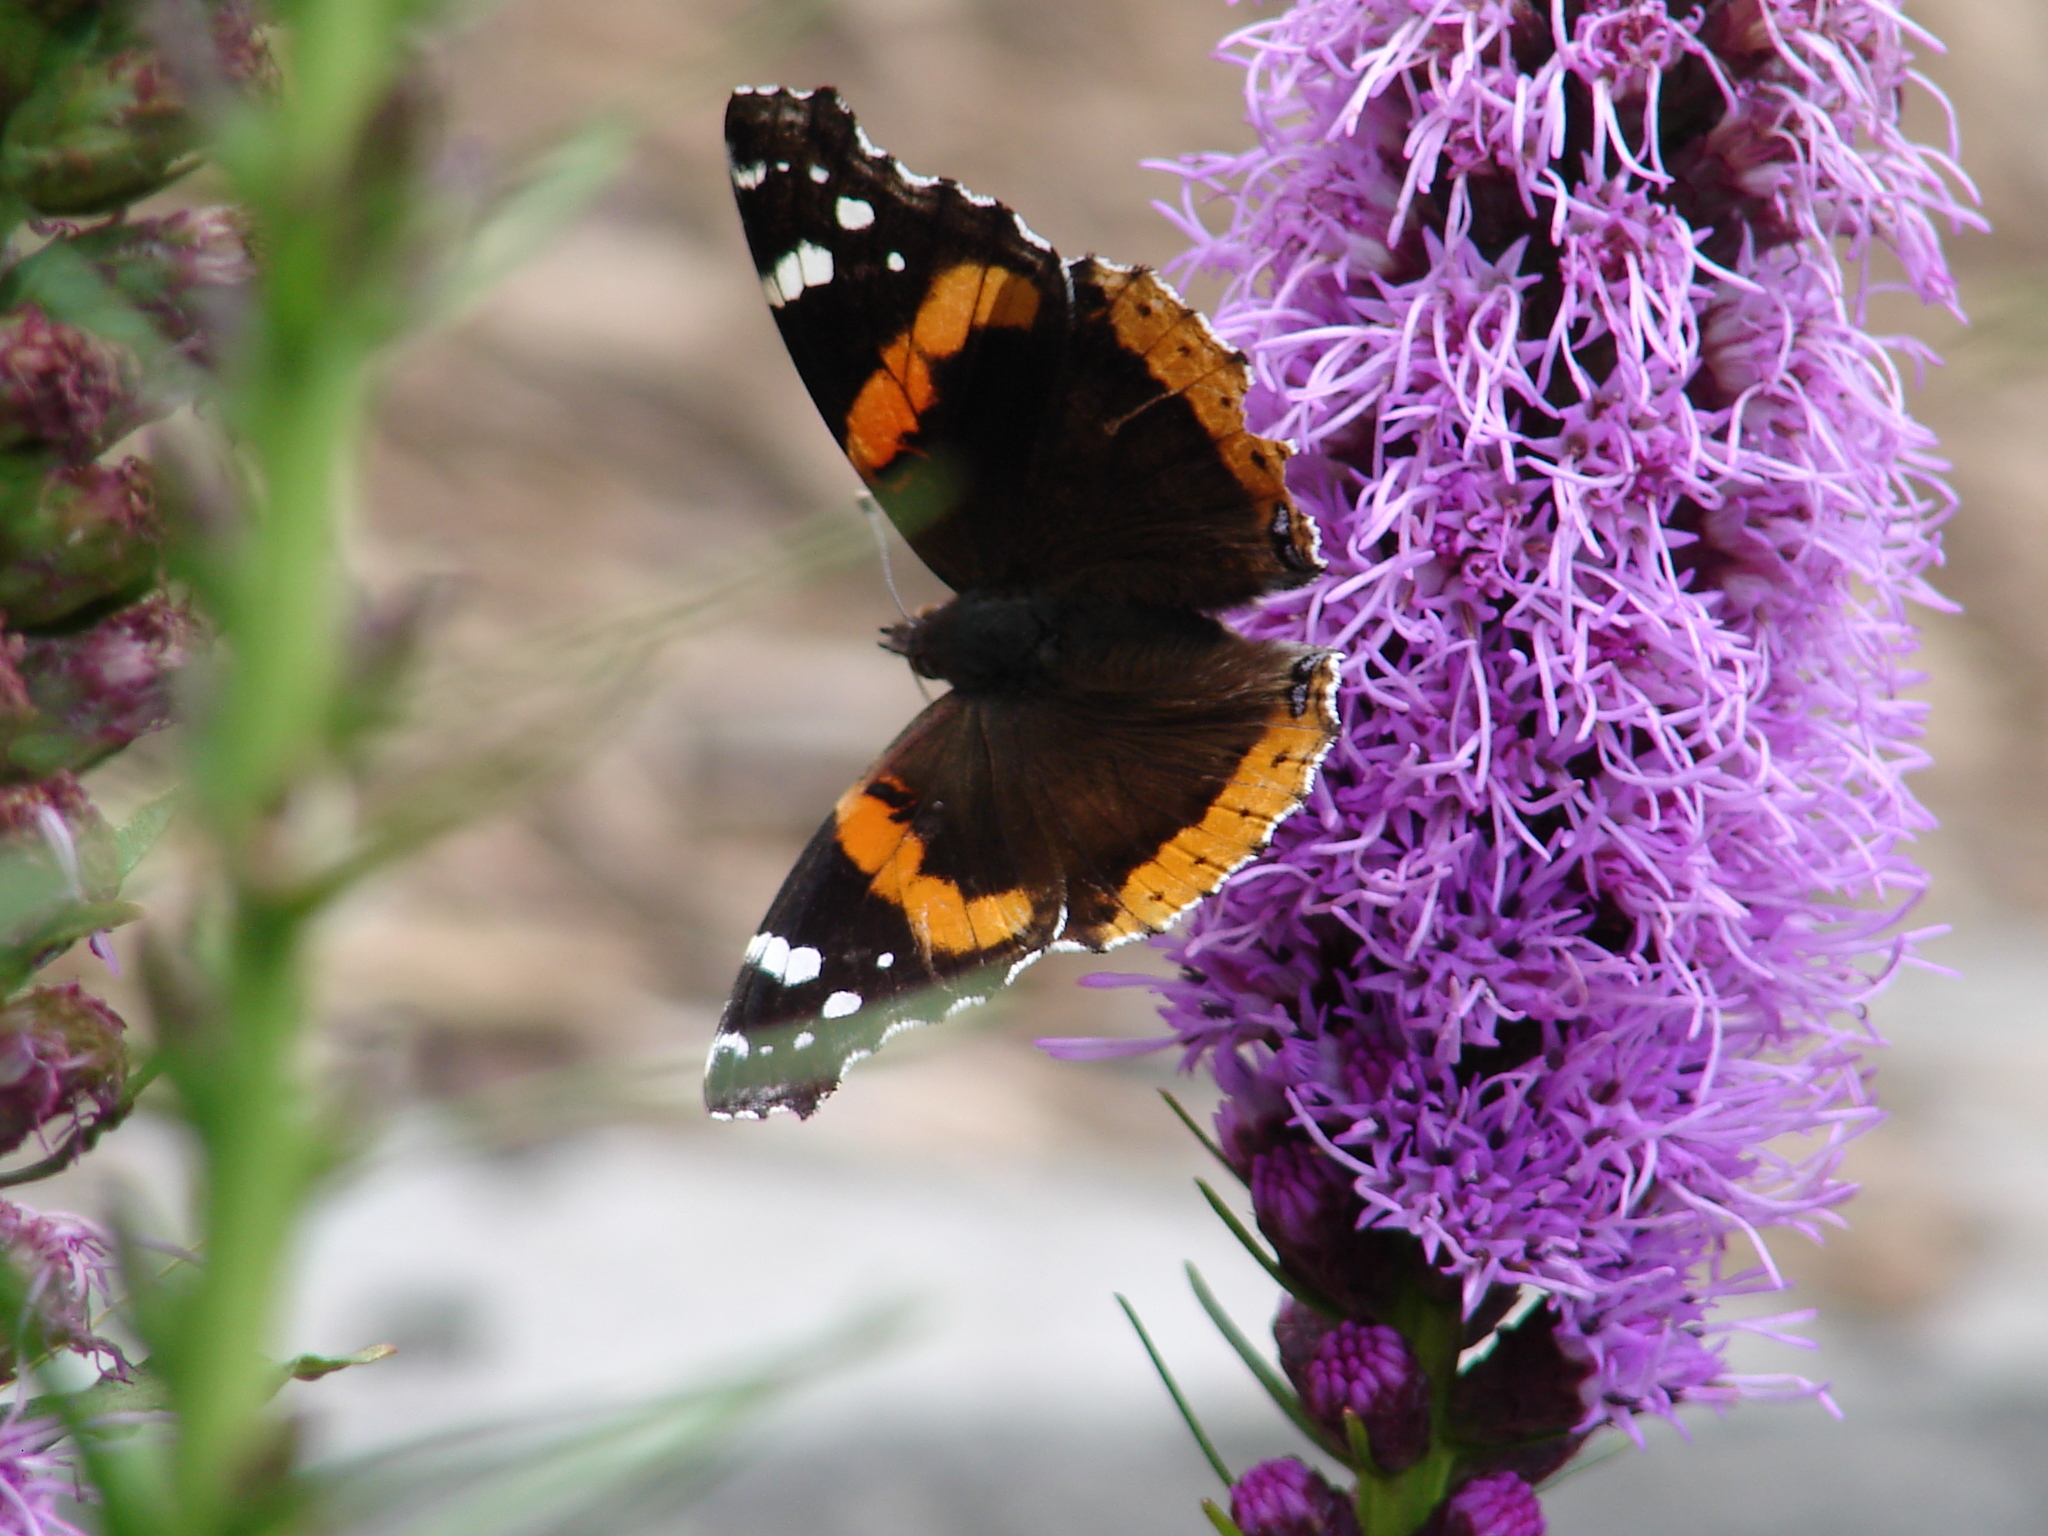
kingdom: Animalia
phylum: Arthropoda
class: Insecta
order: Lepidoptera
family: Nymphalidae
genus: Vanessa
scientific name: Vanessa atalanta
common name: Red admiral
